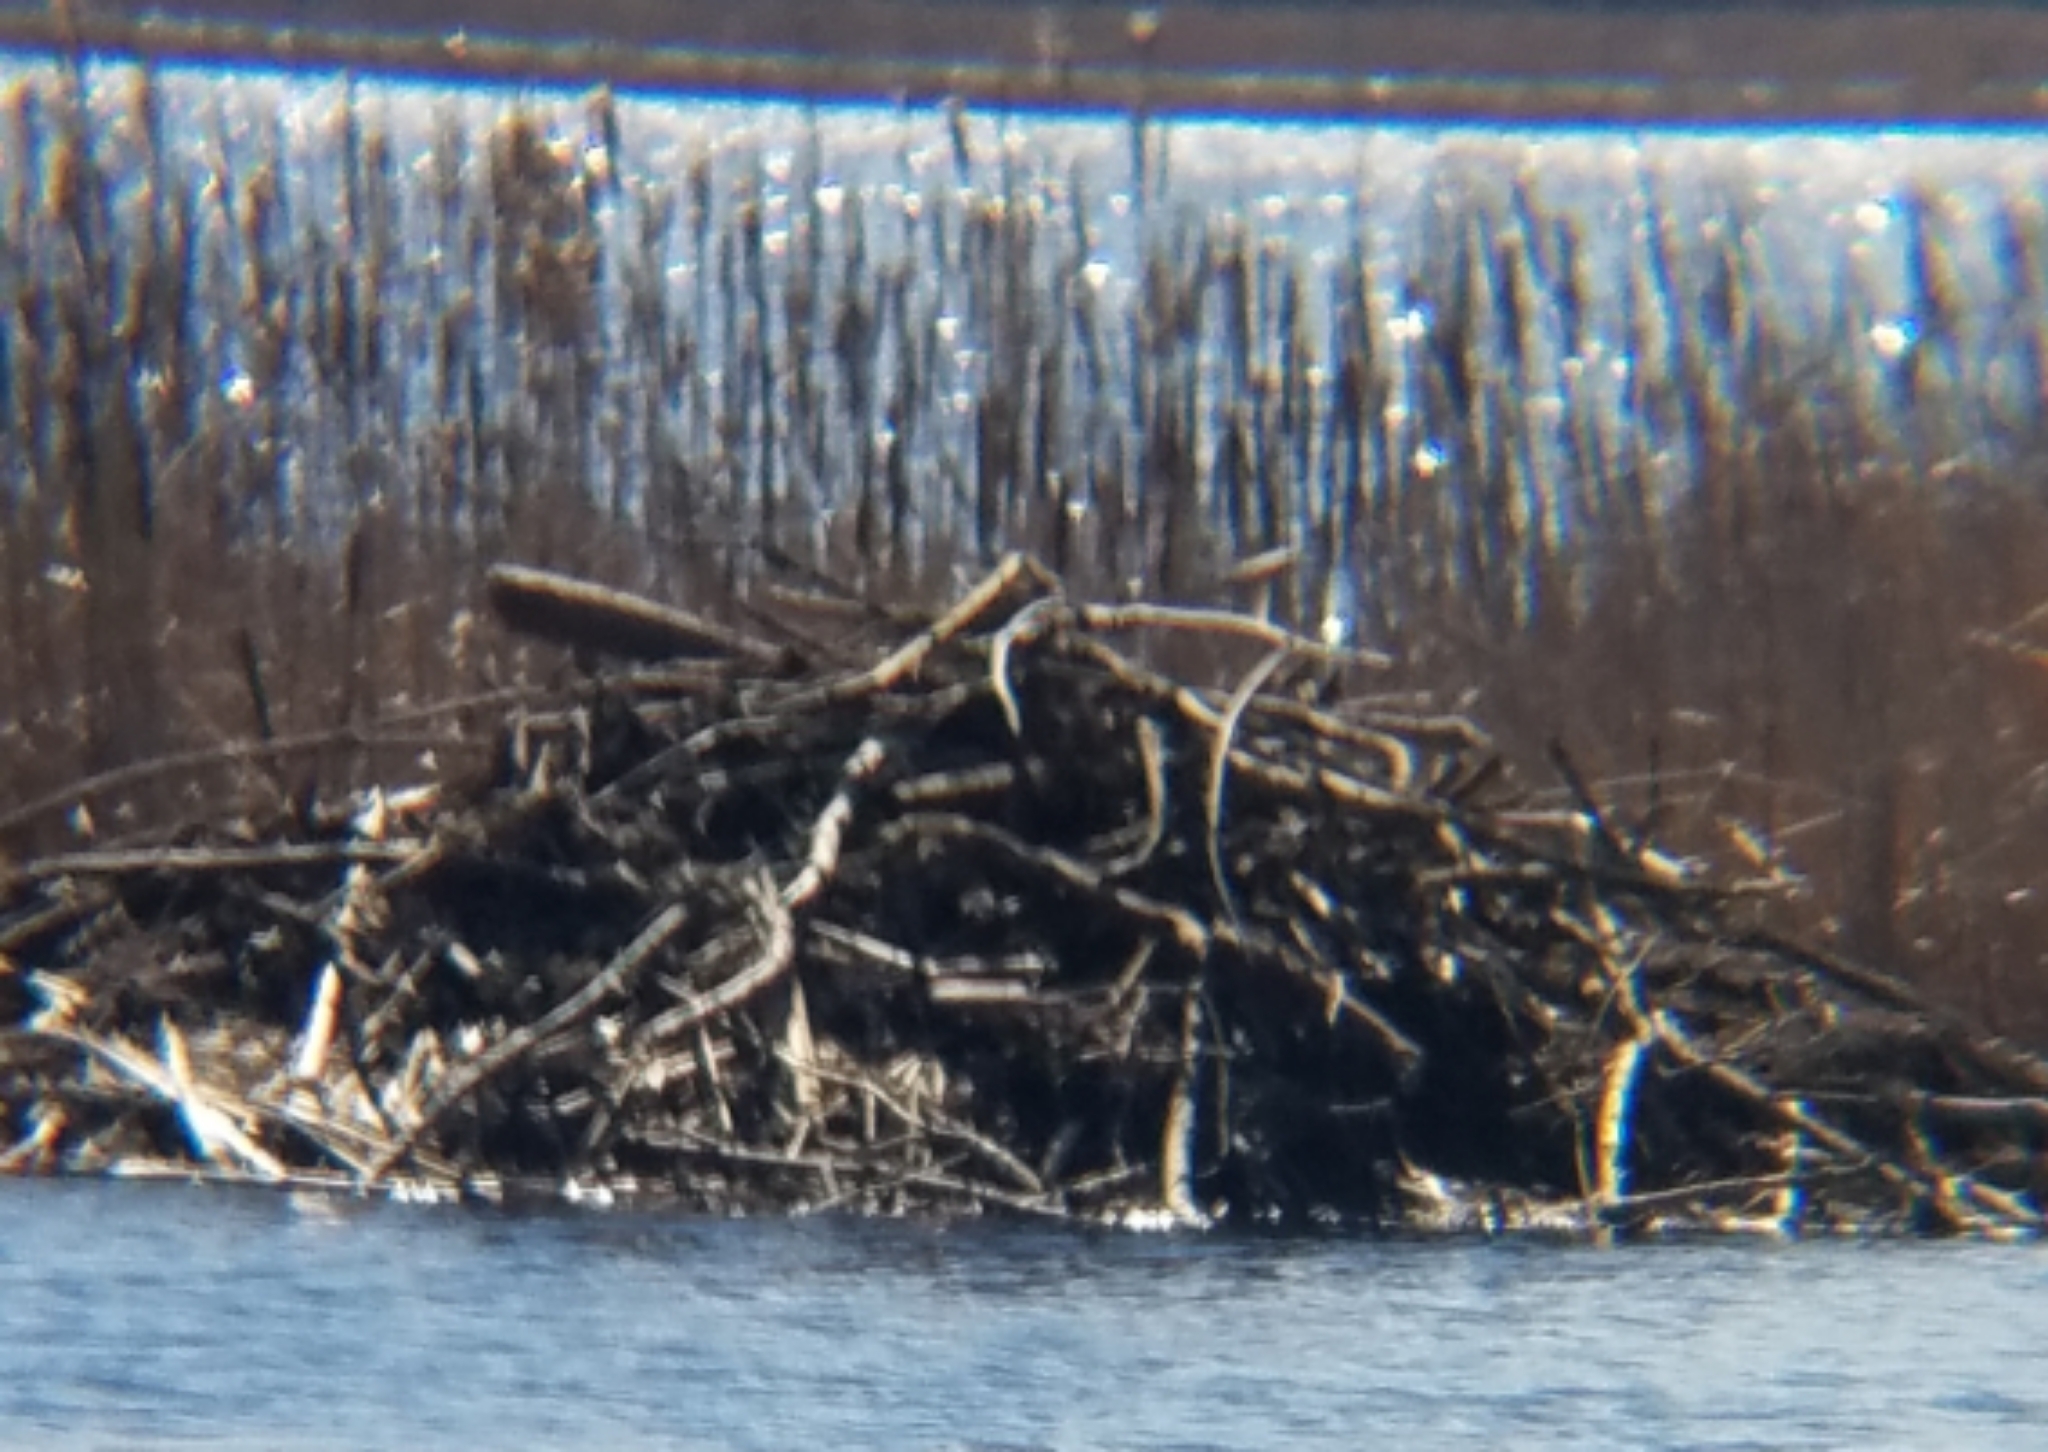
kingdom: Animalia
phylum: Chordata
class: Mammalia
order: Rodentia
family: Castoridae
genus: Castor
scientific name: Castor canadensis
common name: American beaver
